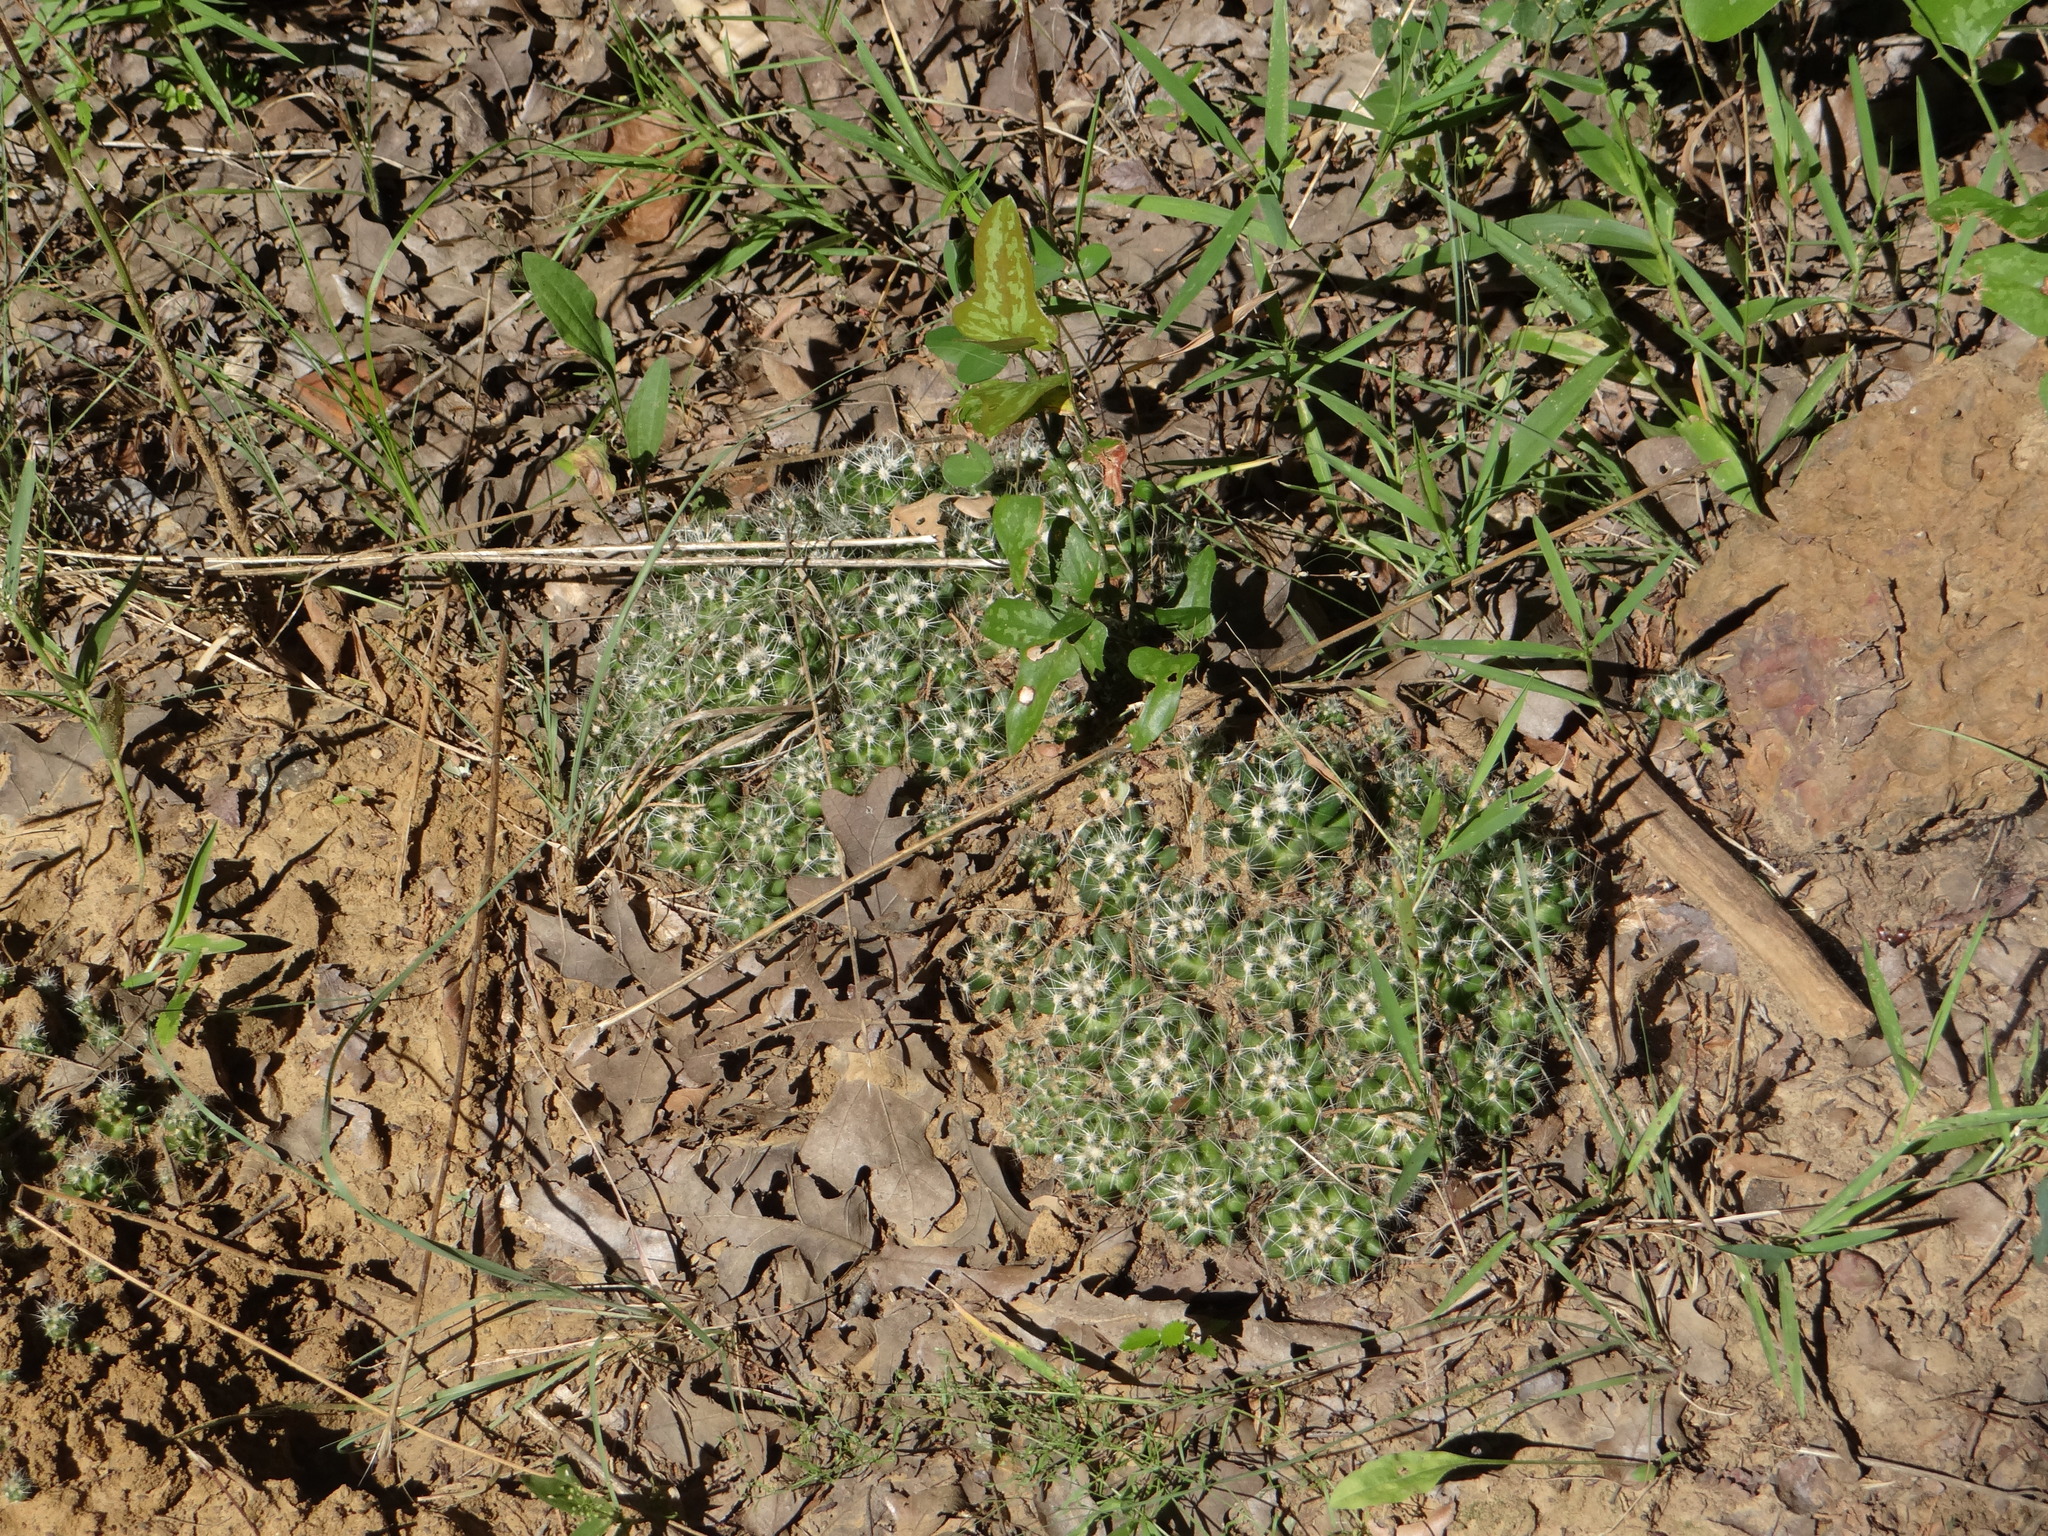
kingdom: Plantae
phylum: Tracheophyta
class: Magnoliopsida
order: Caryophyllales
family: Cactaceae
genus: Pelecyphora
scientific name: Pelecyphora missouriensis
